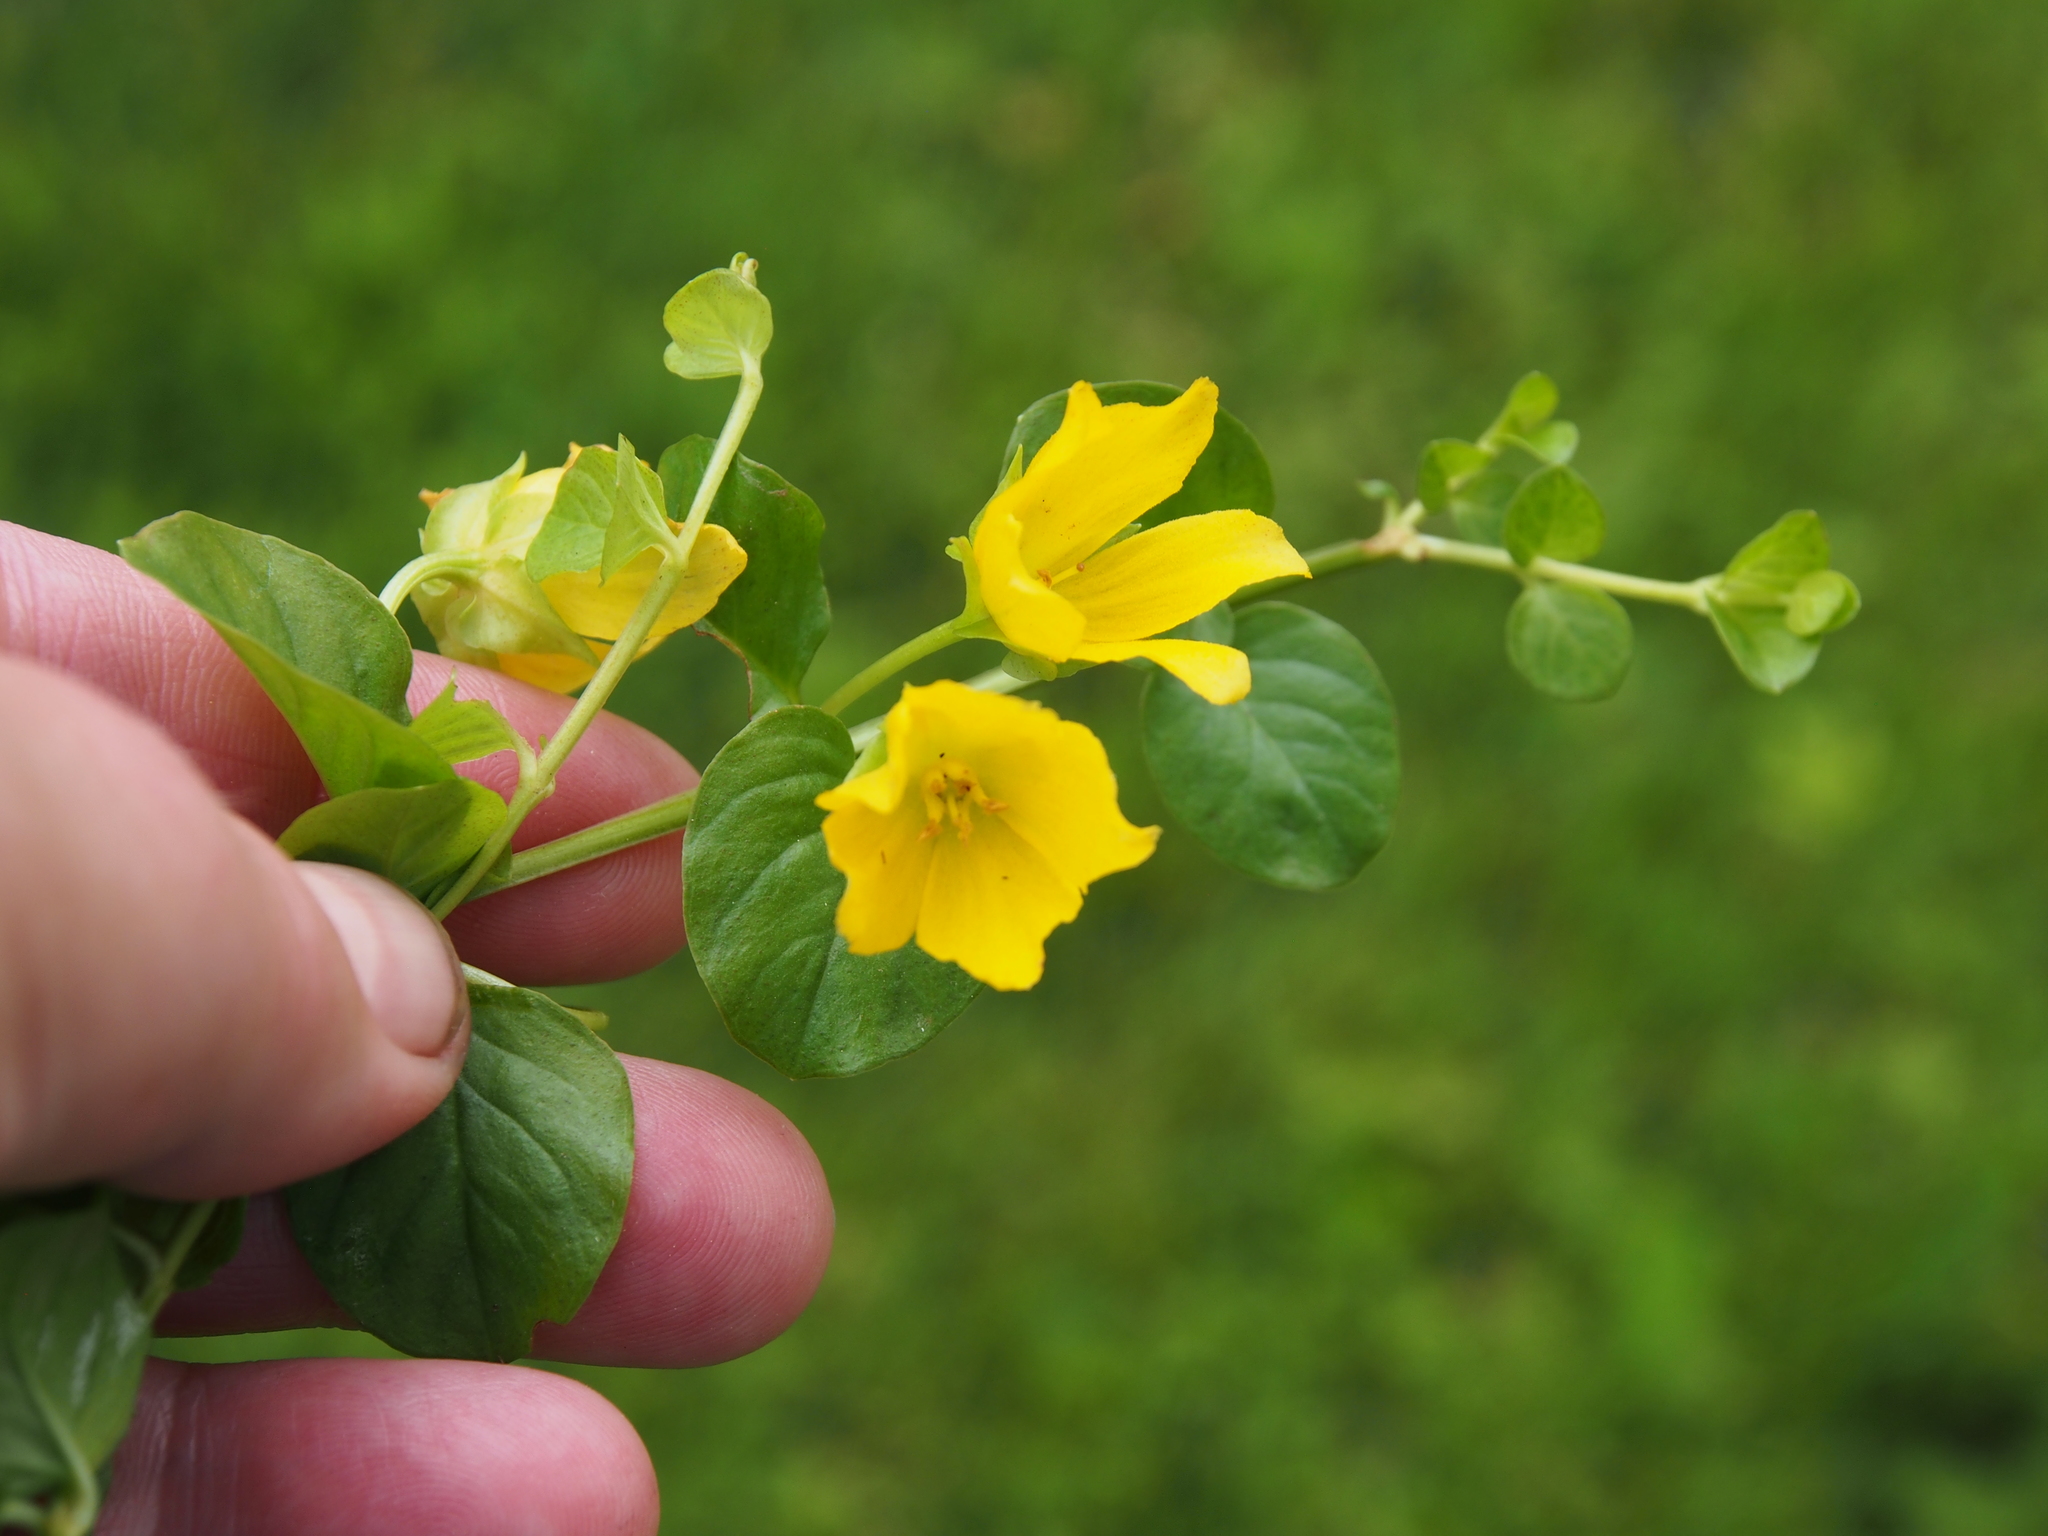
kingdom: Plantae
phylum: Tracheophyta
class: Magnoliopsida
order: Ericales
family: Primulaceae
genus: Lysimachia
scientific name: Lysimachia nummularia
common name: Moneywort
